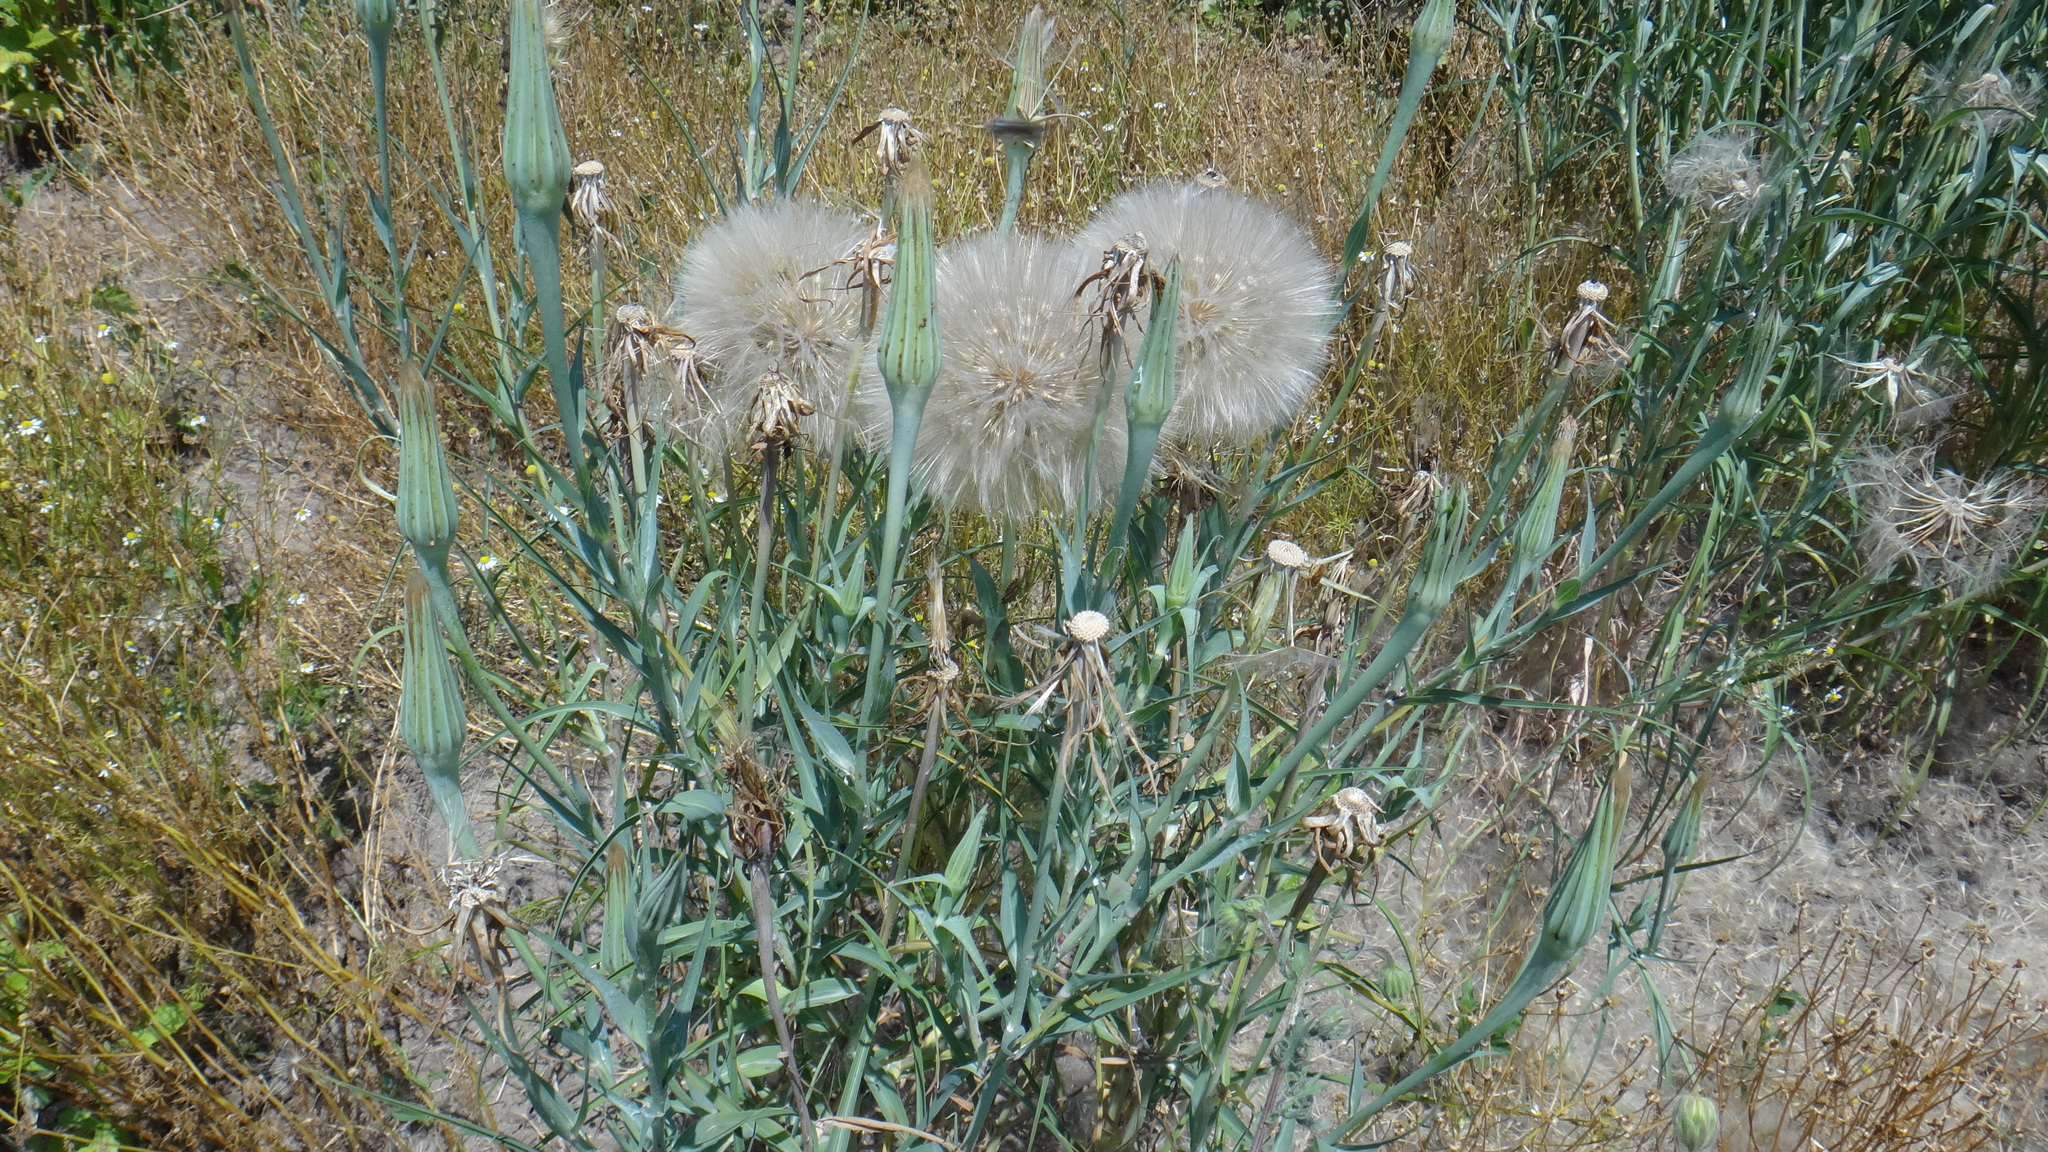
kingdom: Plantae
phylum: Tracheophyta
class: Magnoliopsida
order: Asterales
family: Asteraceae
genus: Tragopogon
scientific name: Tragopogon dubius
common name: Yellow salsify
